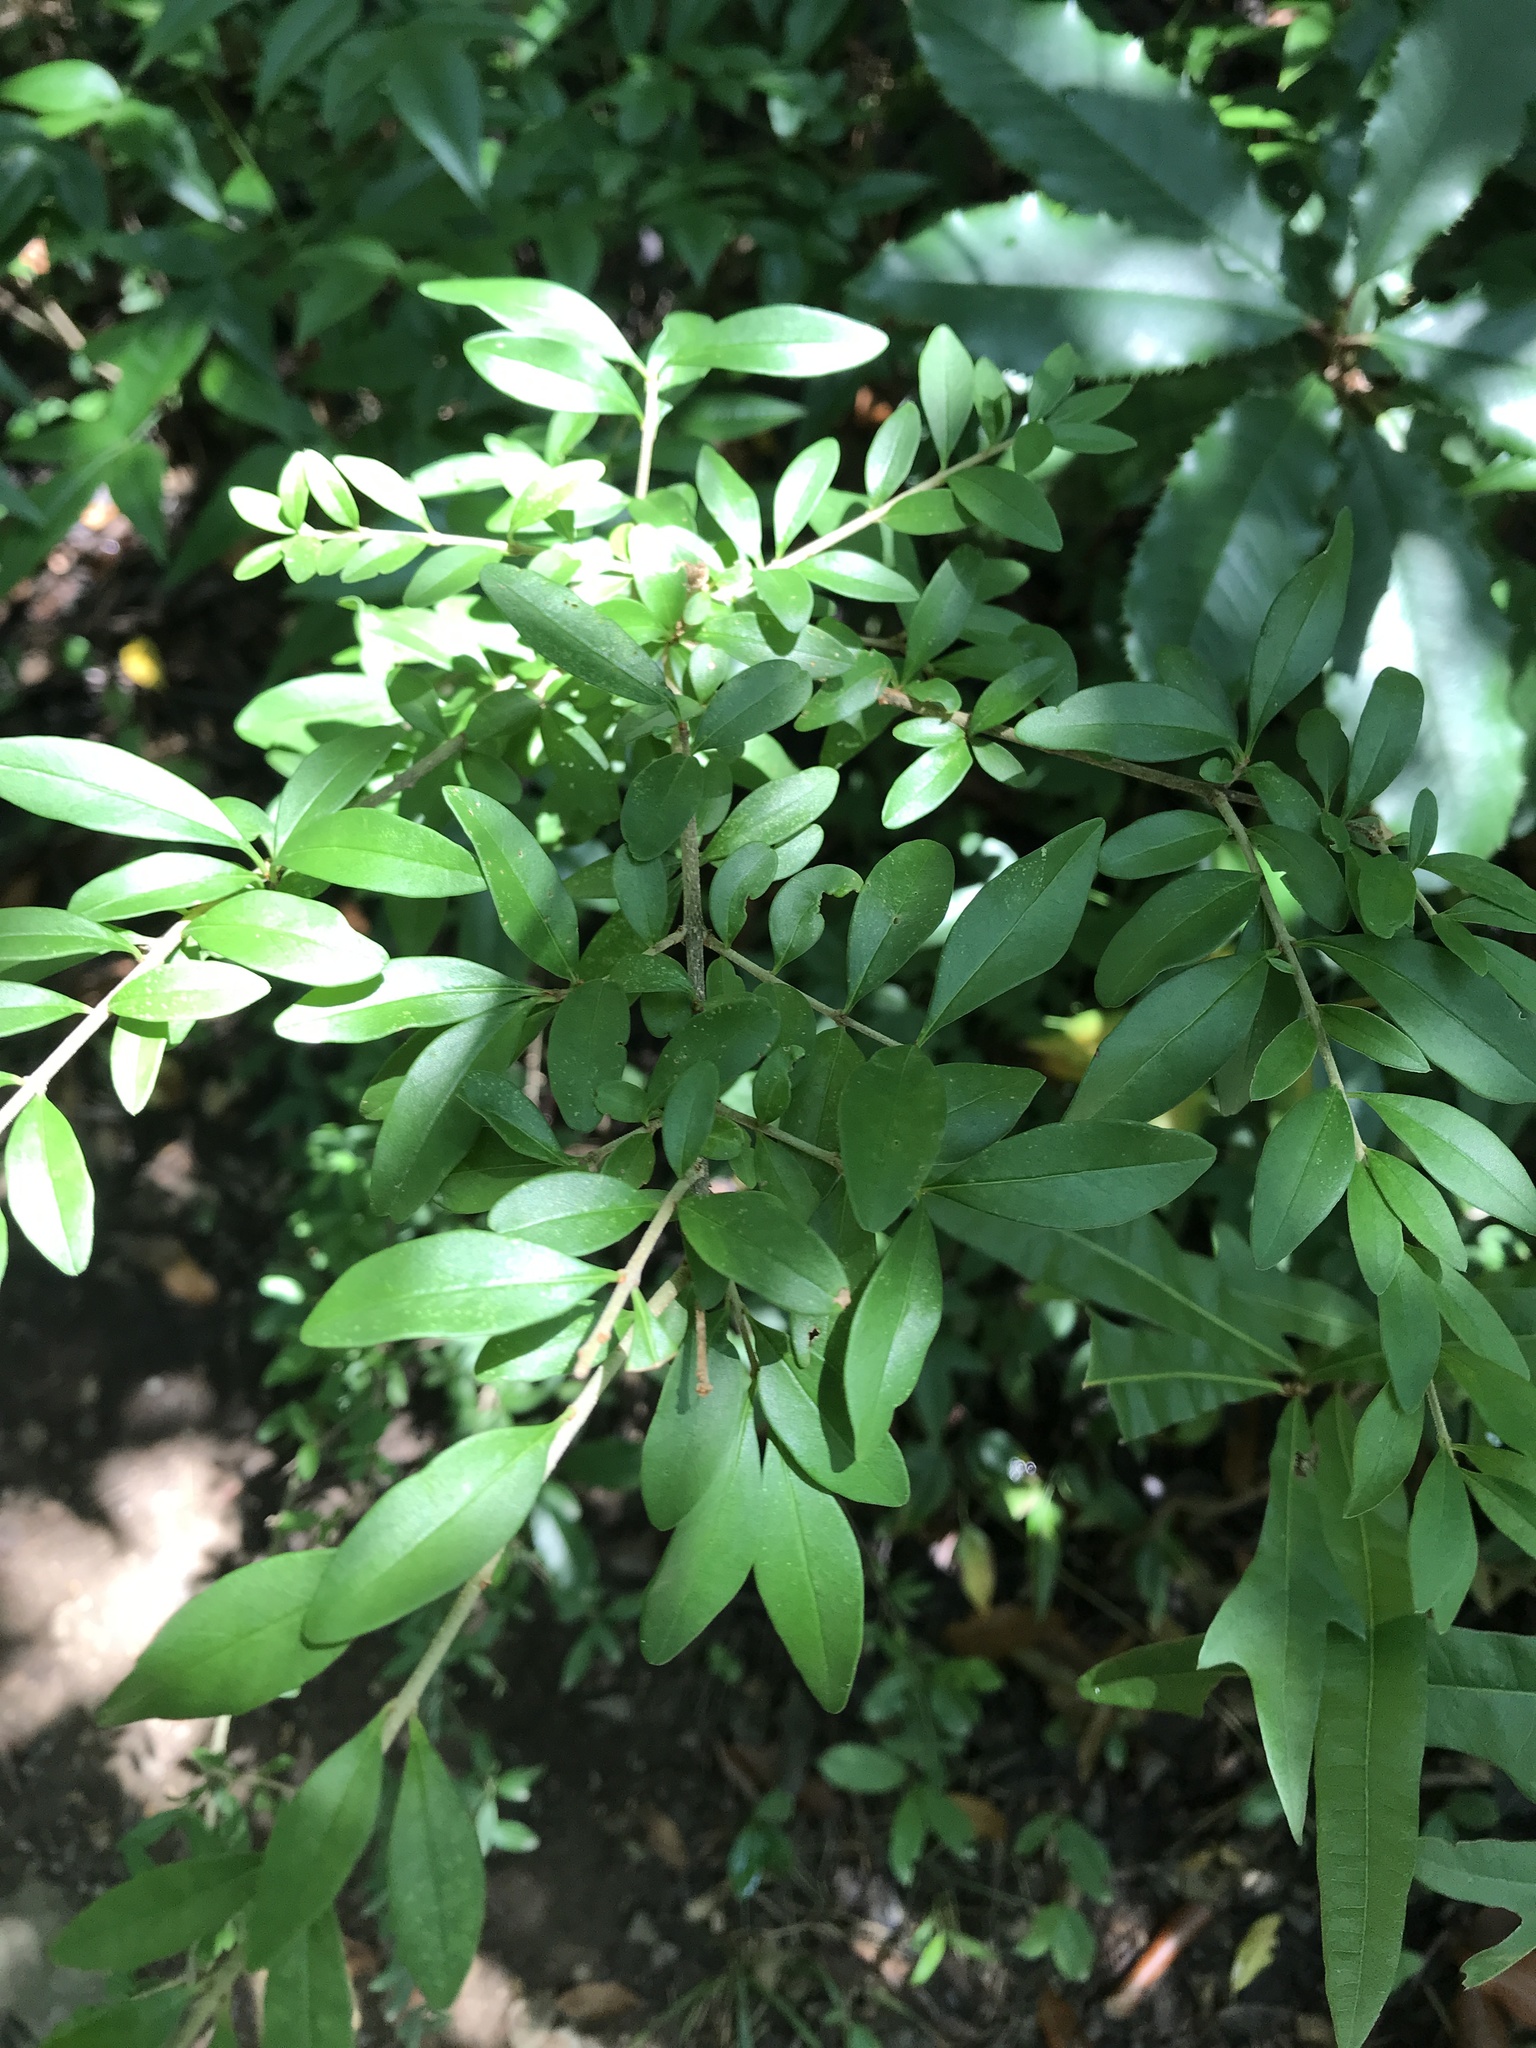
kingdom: Plantae
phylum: Tracheophyta
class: Magnoliopsida
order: Lamiales
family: Oleaceae
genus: Ligustrum
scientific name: Ligustrum quihoui
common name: Waxyleaf privet
